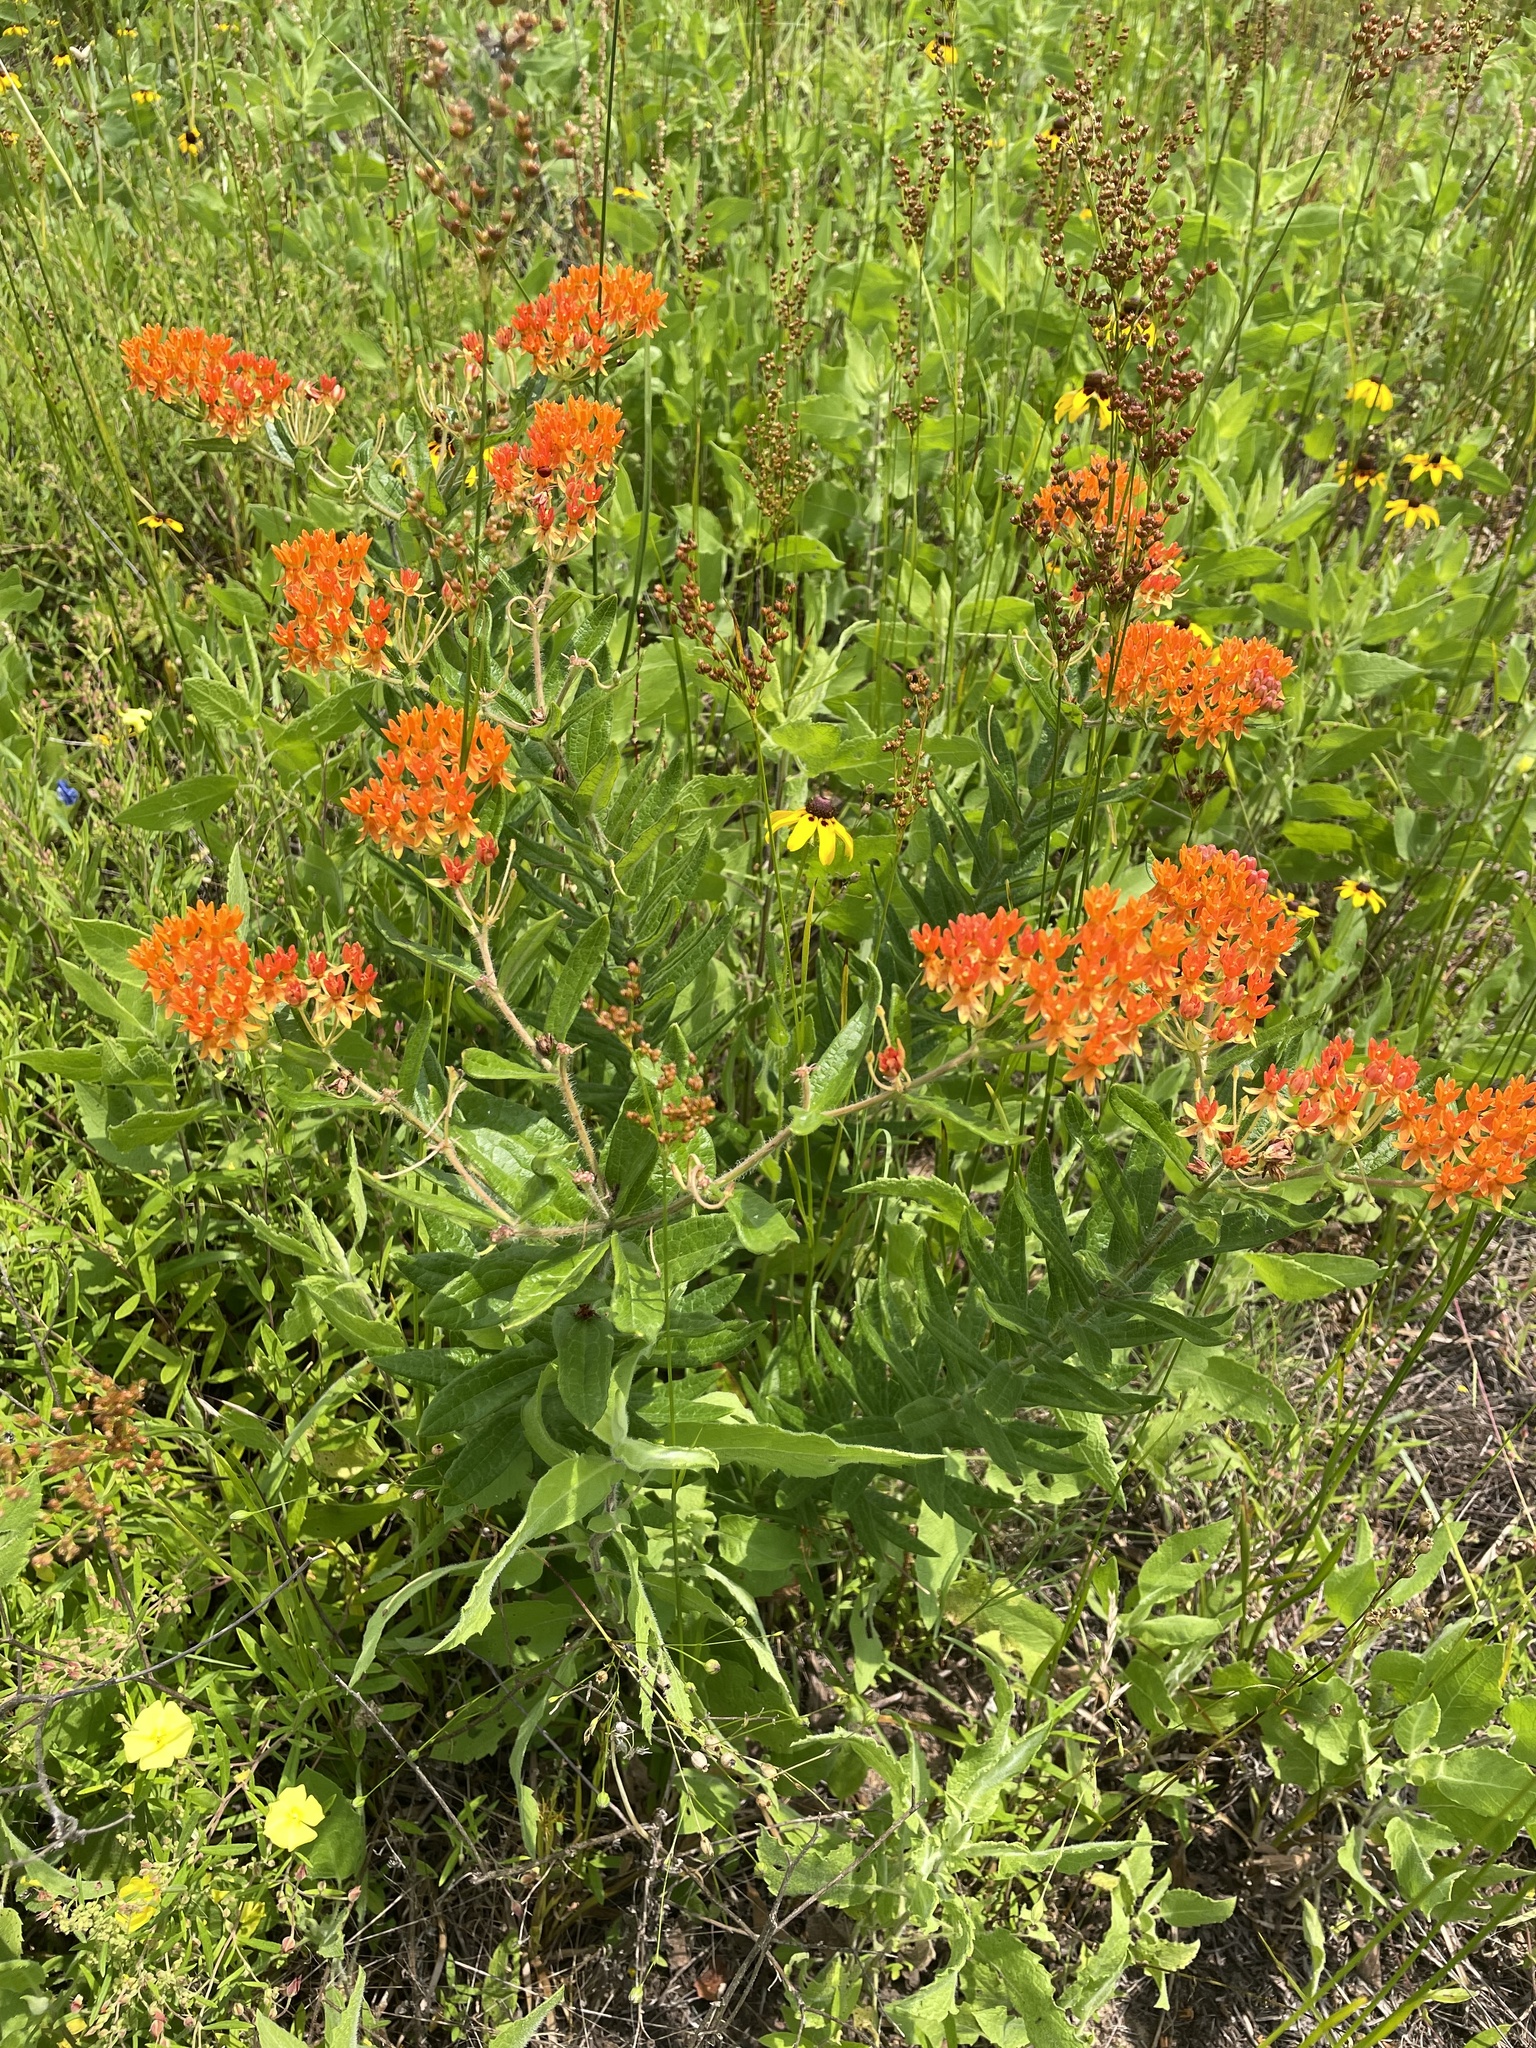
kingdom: Plantae
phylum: Tracheophyta
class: Magnoliopsida
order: Gentianales
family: Apocynaceae
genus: Asclepias
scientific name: Asclepias tuberosa
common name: Butterfly milkweed
